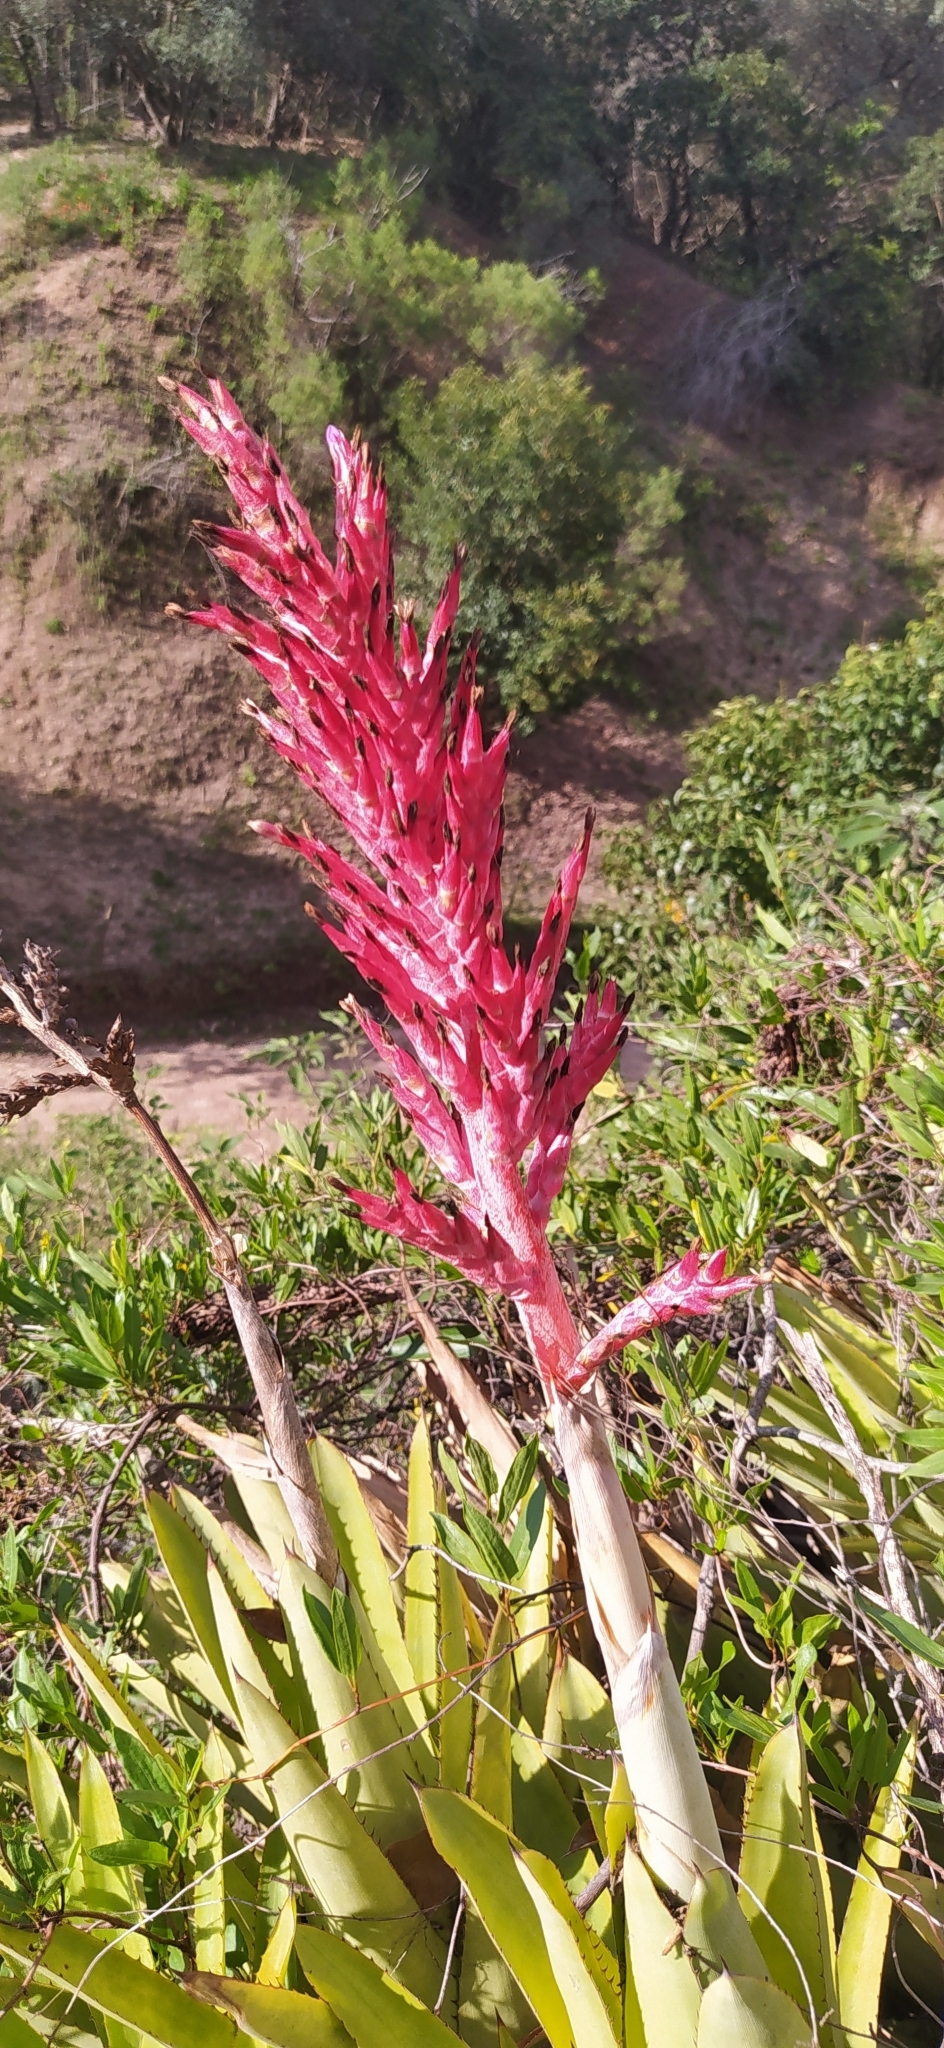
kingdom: Plantae
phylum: Tracheophyta
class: Liliopsida
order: Poales
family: Bromeliaceae
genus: Aechmea
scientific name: Aechmea distichantha
